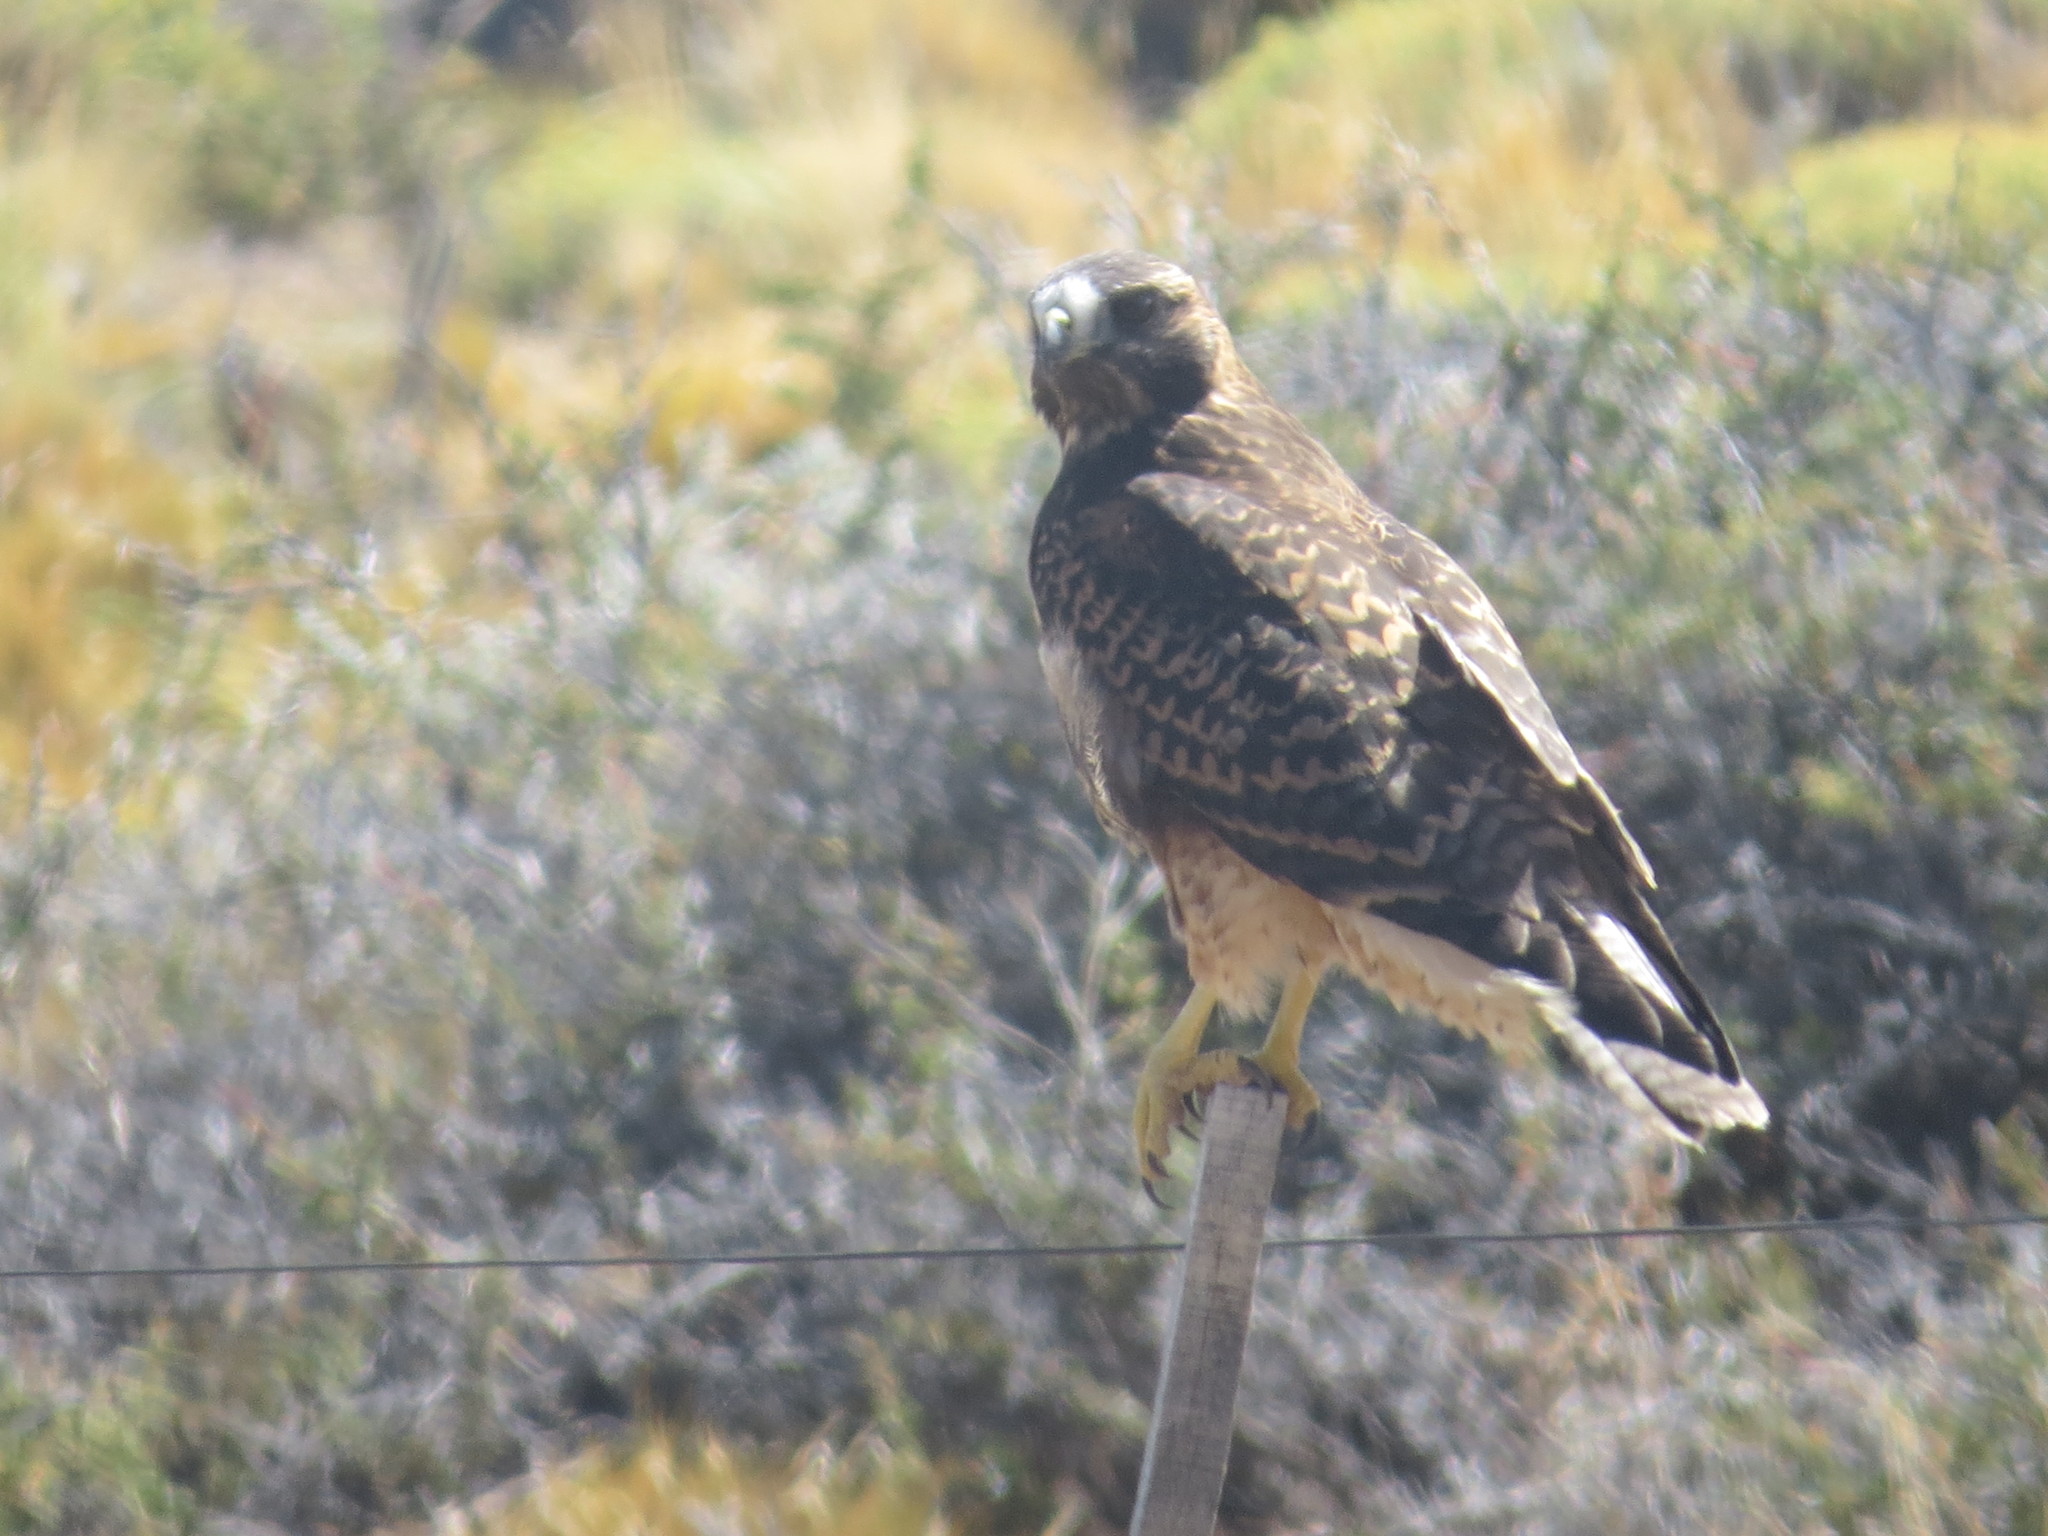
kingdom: Animalia
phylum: Chordata
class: Aves
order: Accipitriformes
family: Accipitridae
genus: Buteo
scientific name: Buteo polyosoma
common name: Variable hawk
